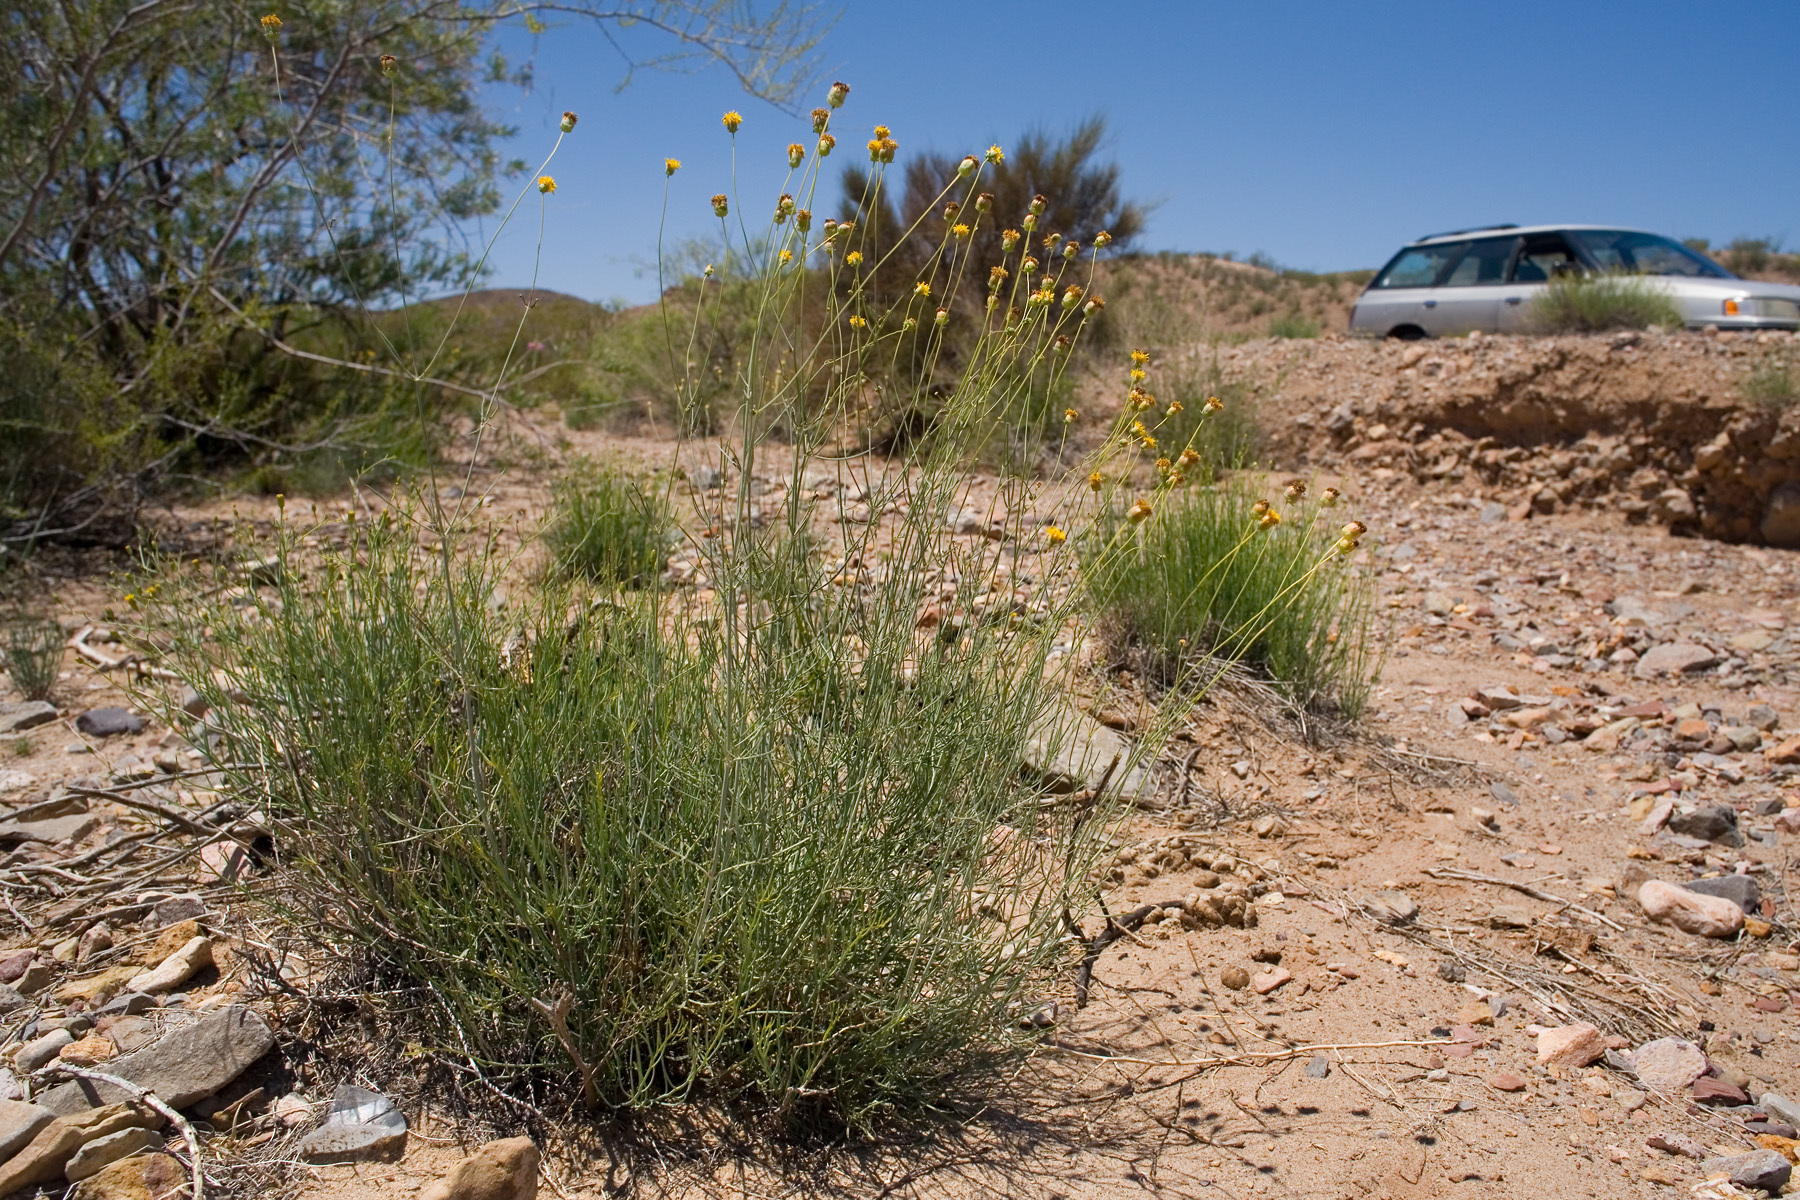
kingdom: Plantae
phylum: Tracheophyta
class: Magnoliopsida
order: Asterales
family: Asteraceae
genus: Thelesperma
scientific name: Thelesperma megapotamicum
